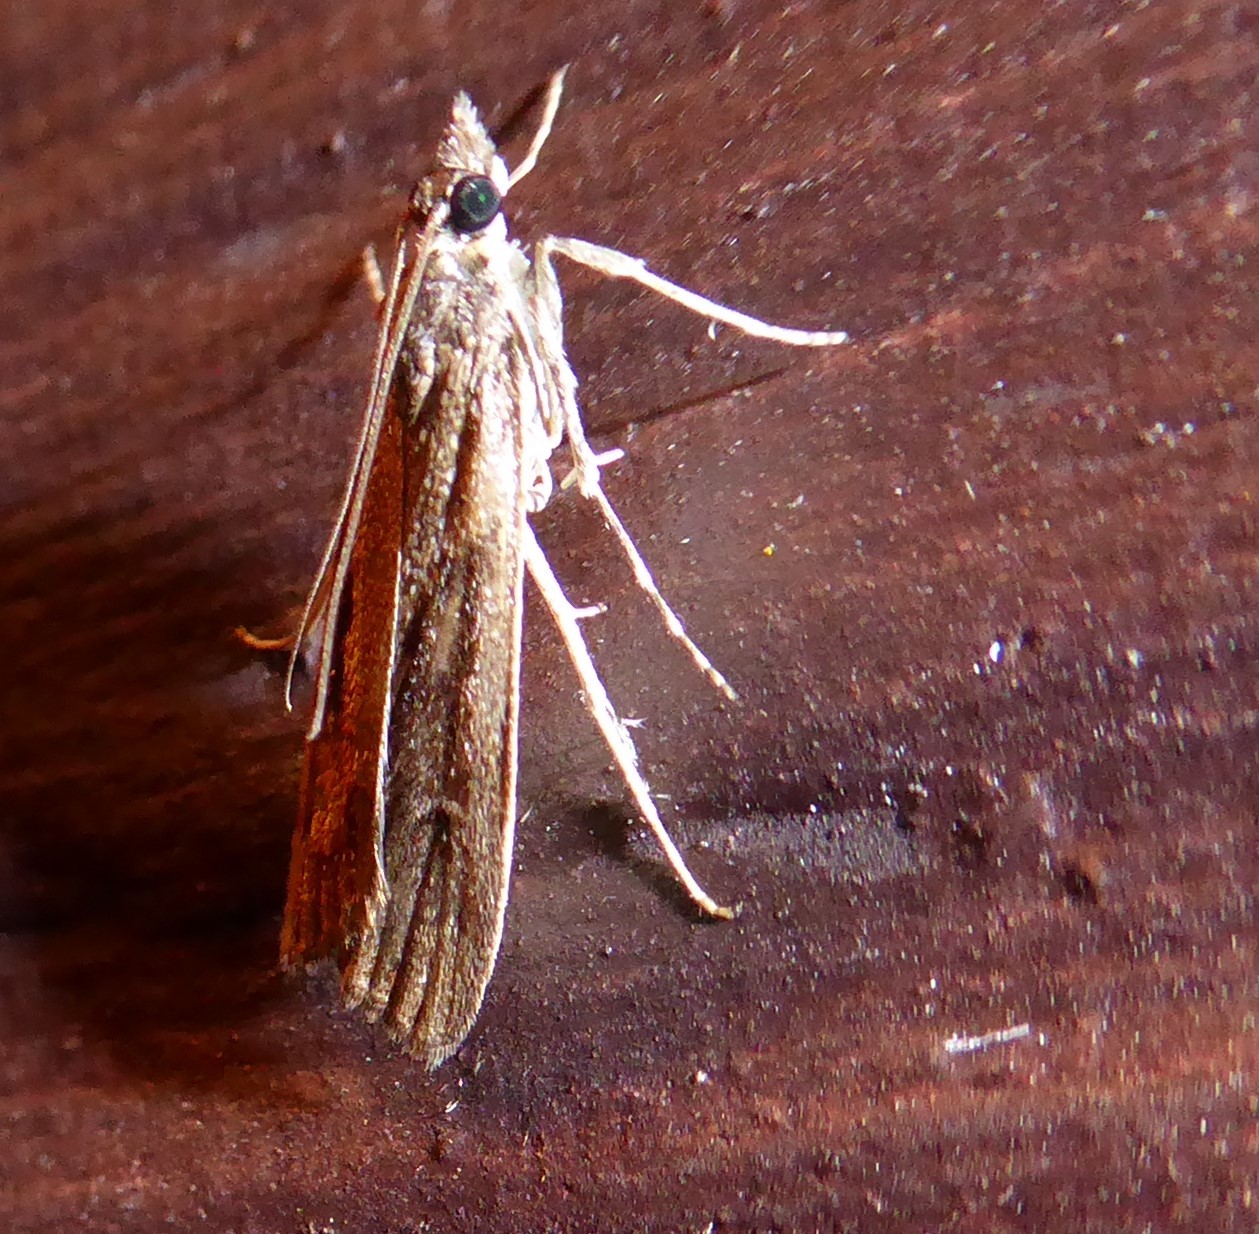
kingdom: Animalia
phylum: Arthropoda
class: Insecta
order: Lepidoptera
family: Crambidae
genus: Eudonia
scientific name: Eudonia submarginalis
